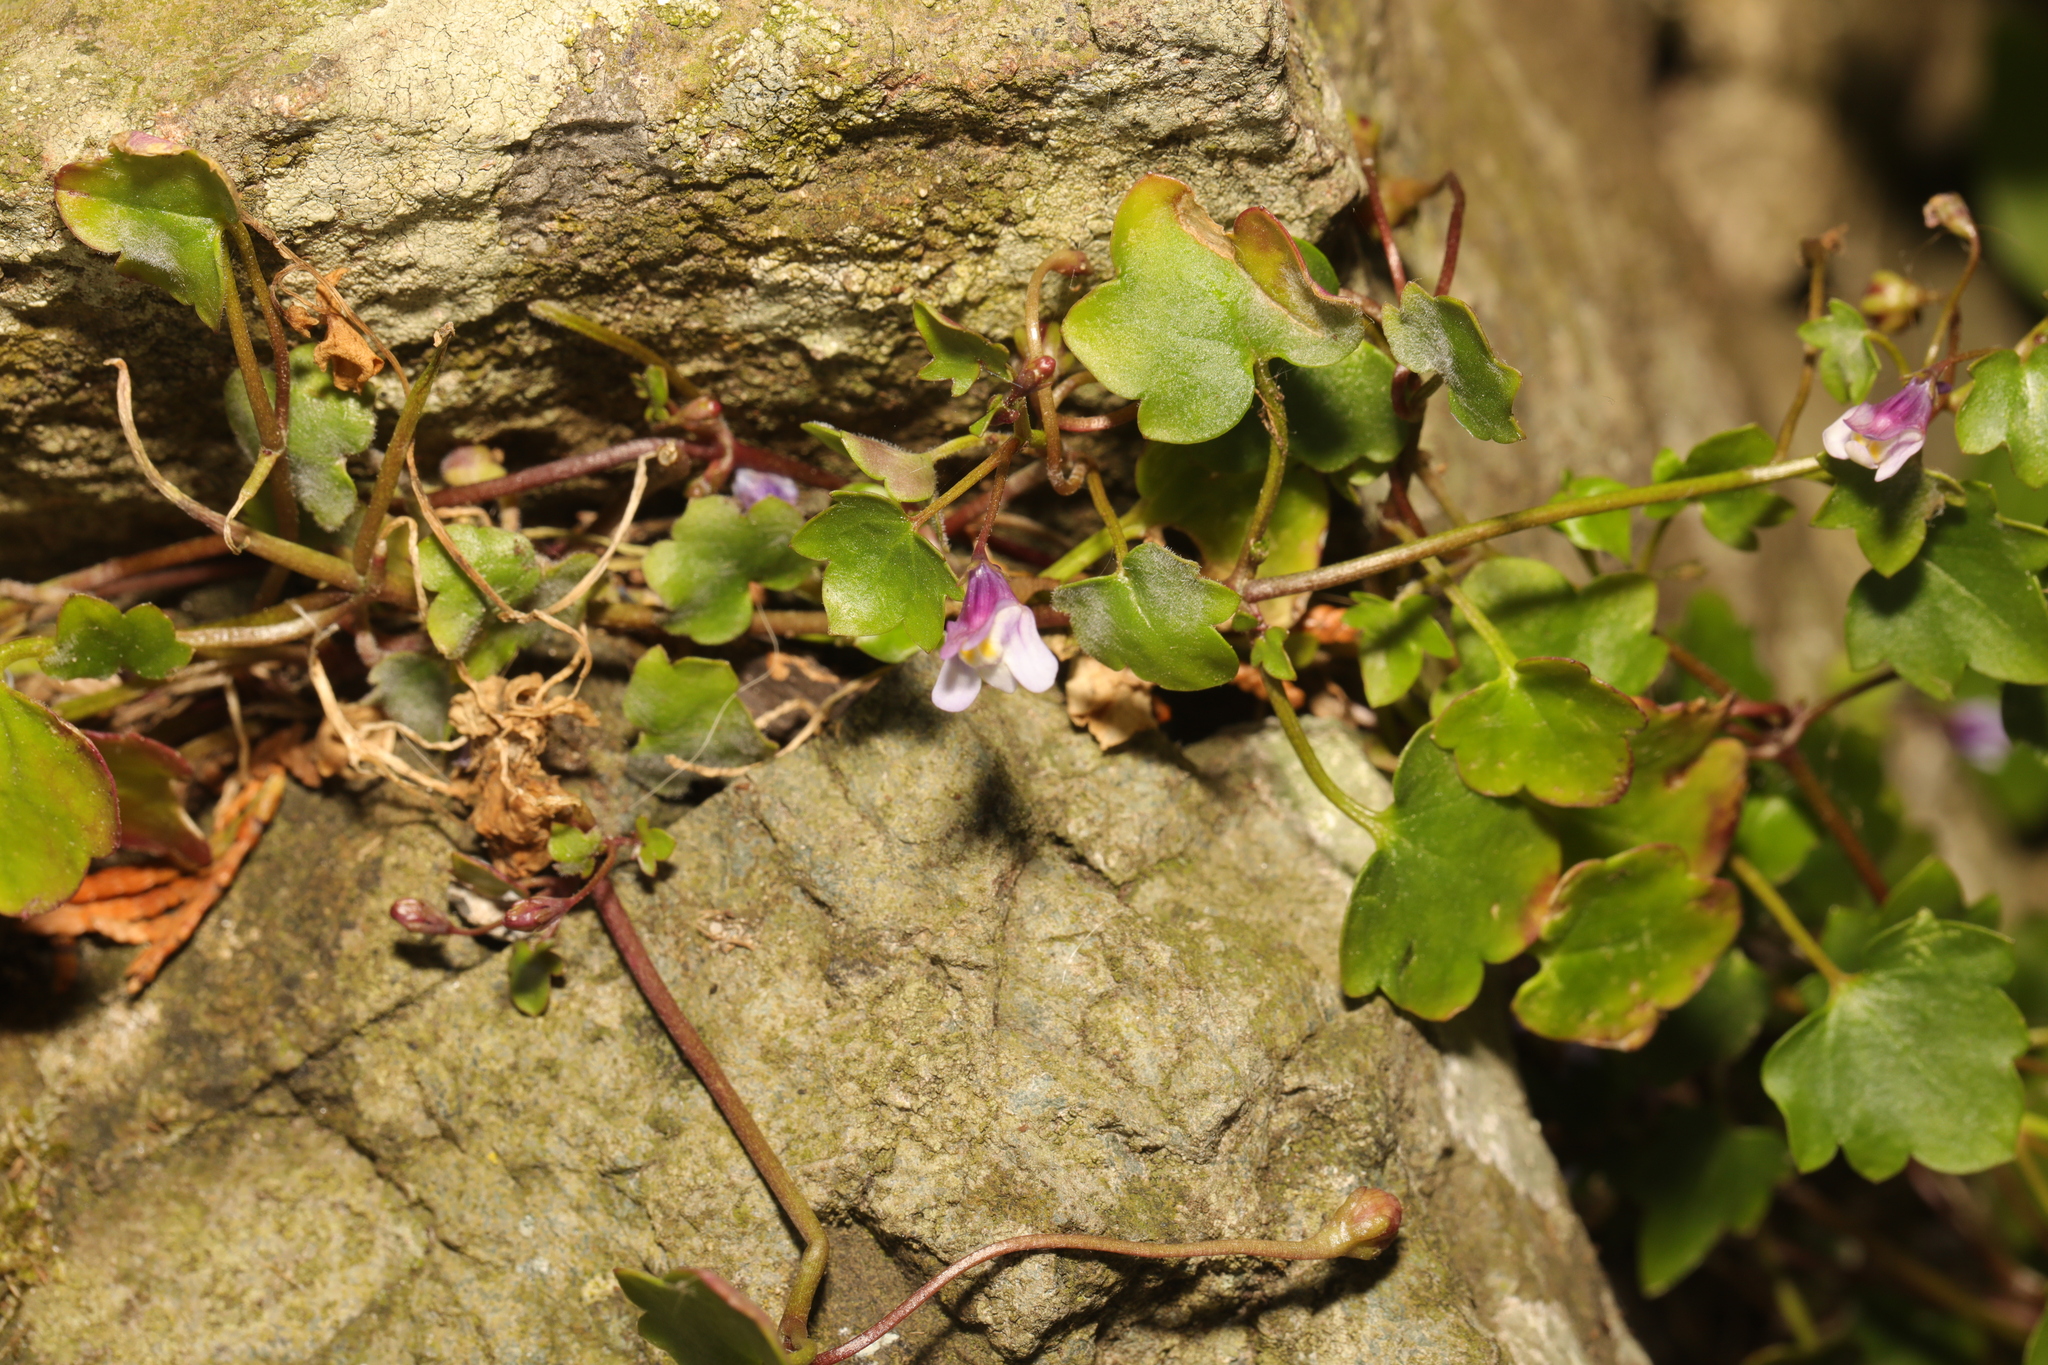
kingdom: Plantae
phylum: Tracheophyta
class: Magnoliopsida
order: Lamiales
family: Plantaginaceae
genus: Cymbalaria
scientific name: Cymbalaria muralis
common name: Ivy-leaved toadflax
